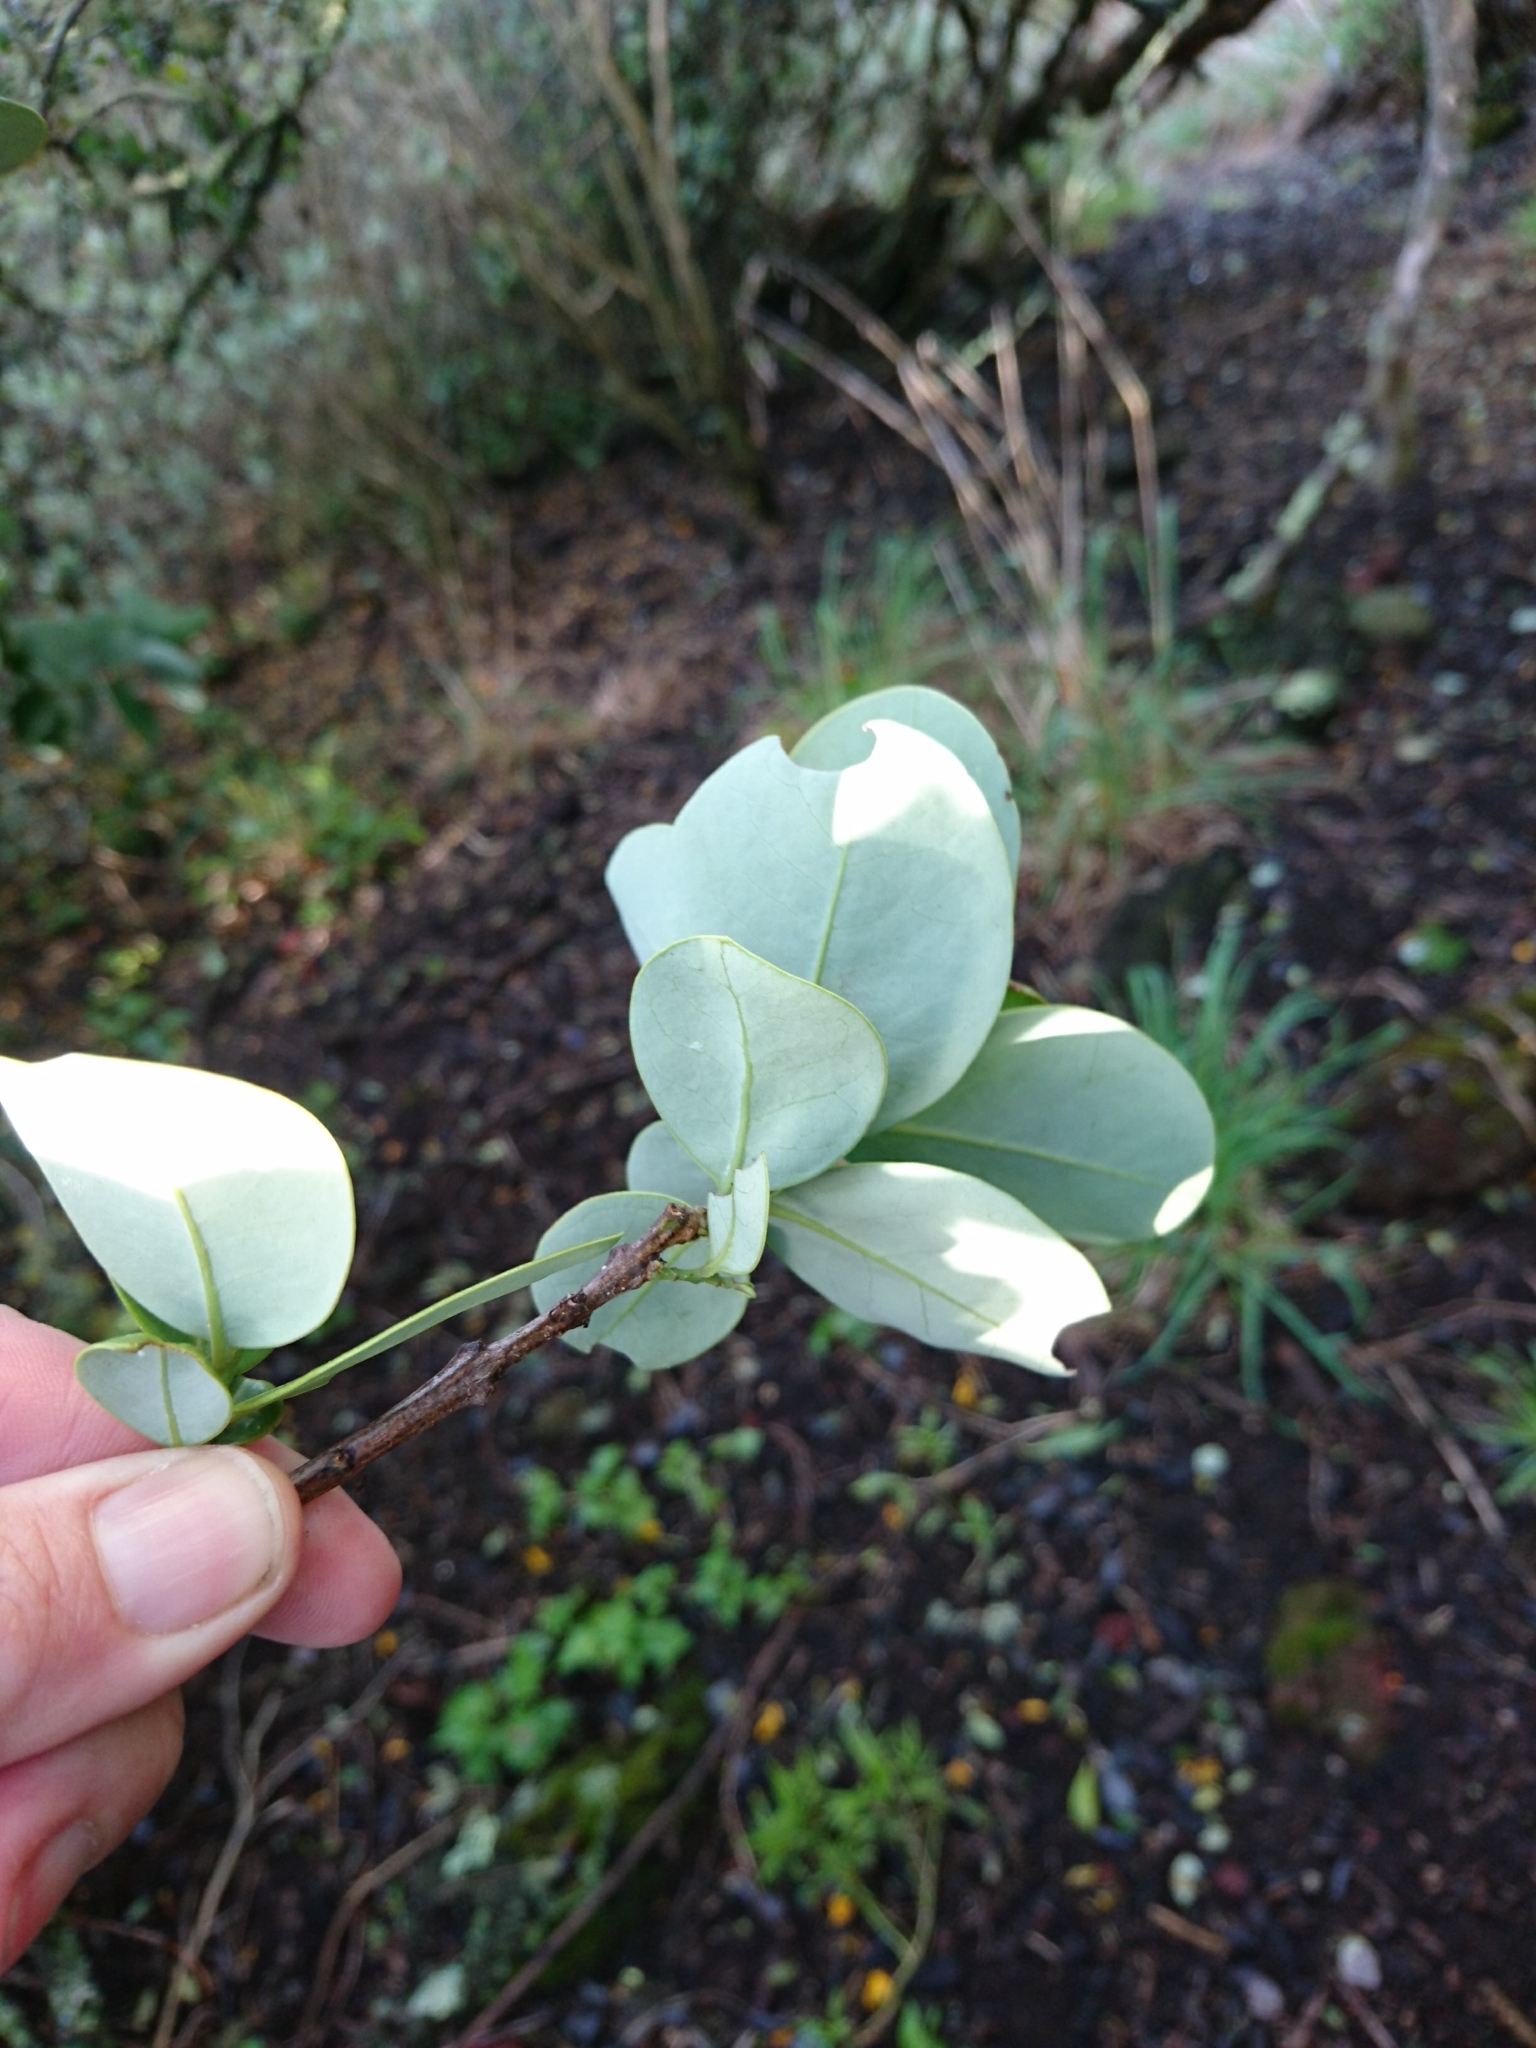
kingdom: Plantae
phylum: Tracheophyta
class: Magnoliopsida
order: Santalales
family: Santalaceae
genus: Santalum
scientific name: Santalum paniculatum
